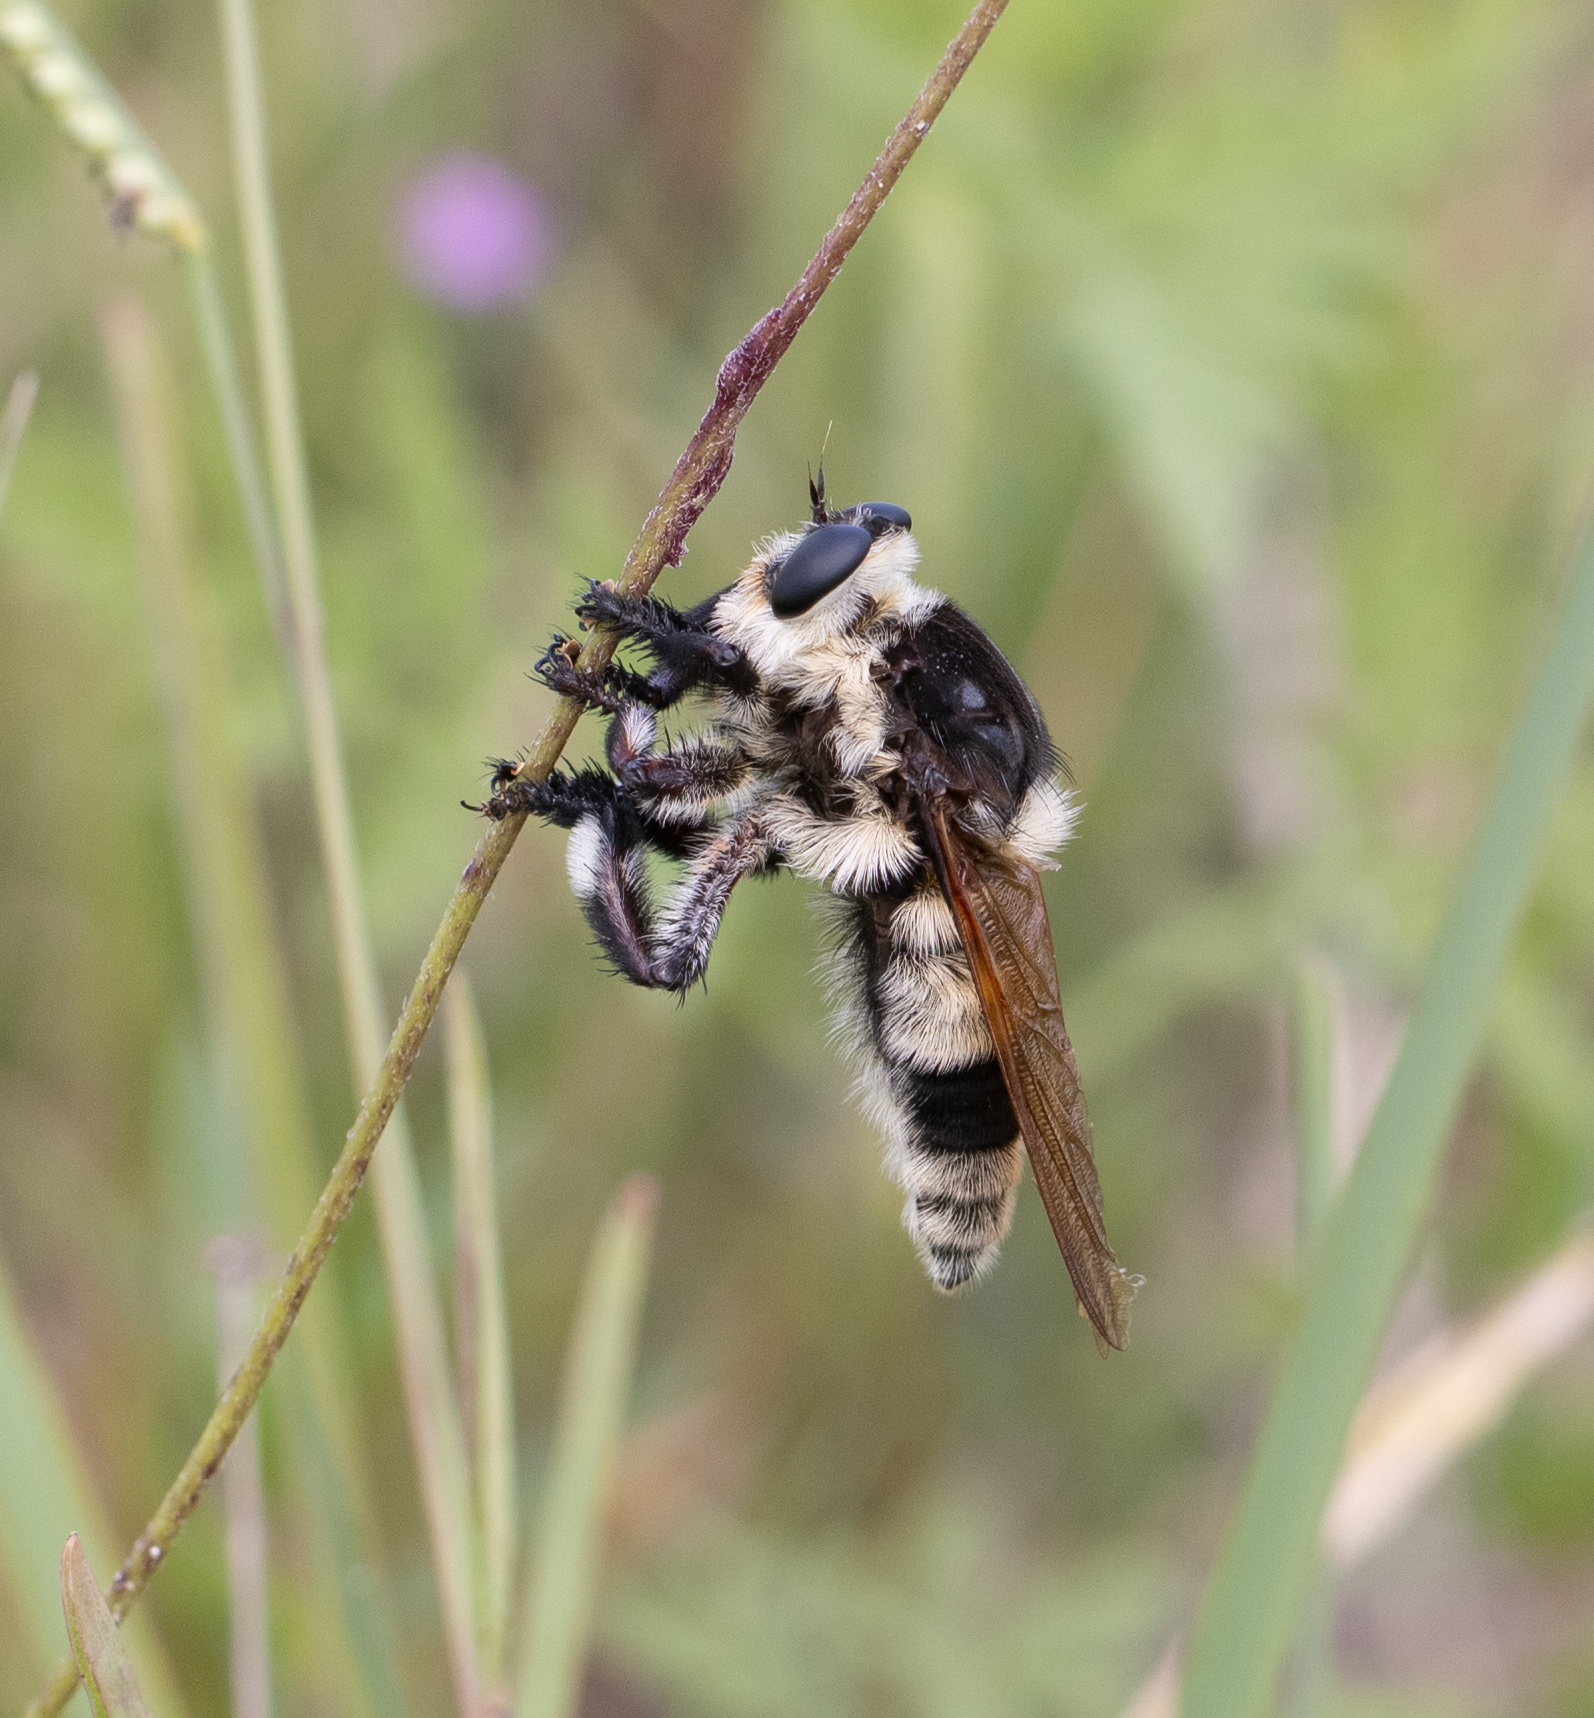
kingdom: Animalia
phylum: Arthropoda
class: Insecta
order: Diptera
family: Asilidae
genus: Mallophora
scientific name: Mallophora bomboides
